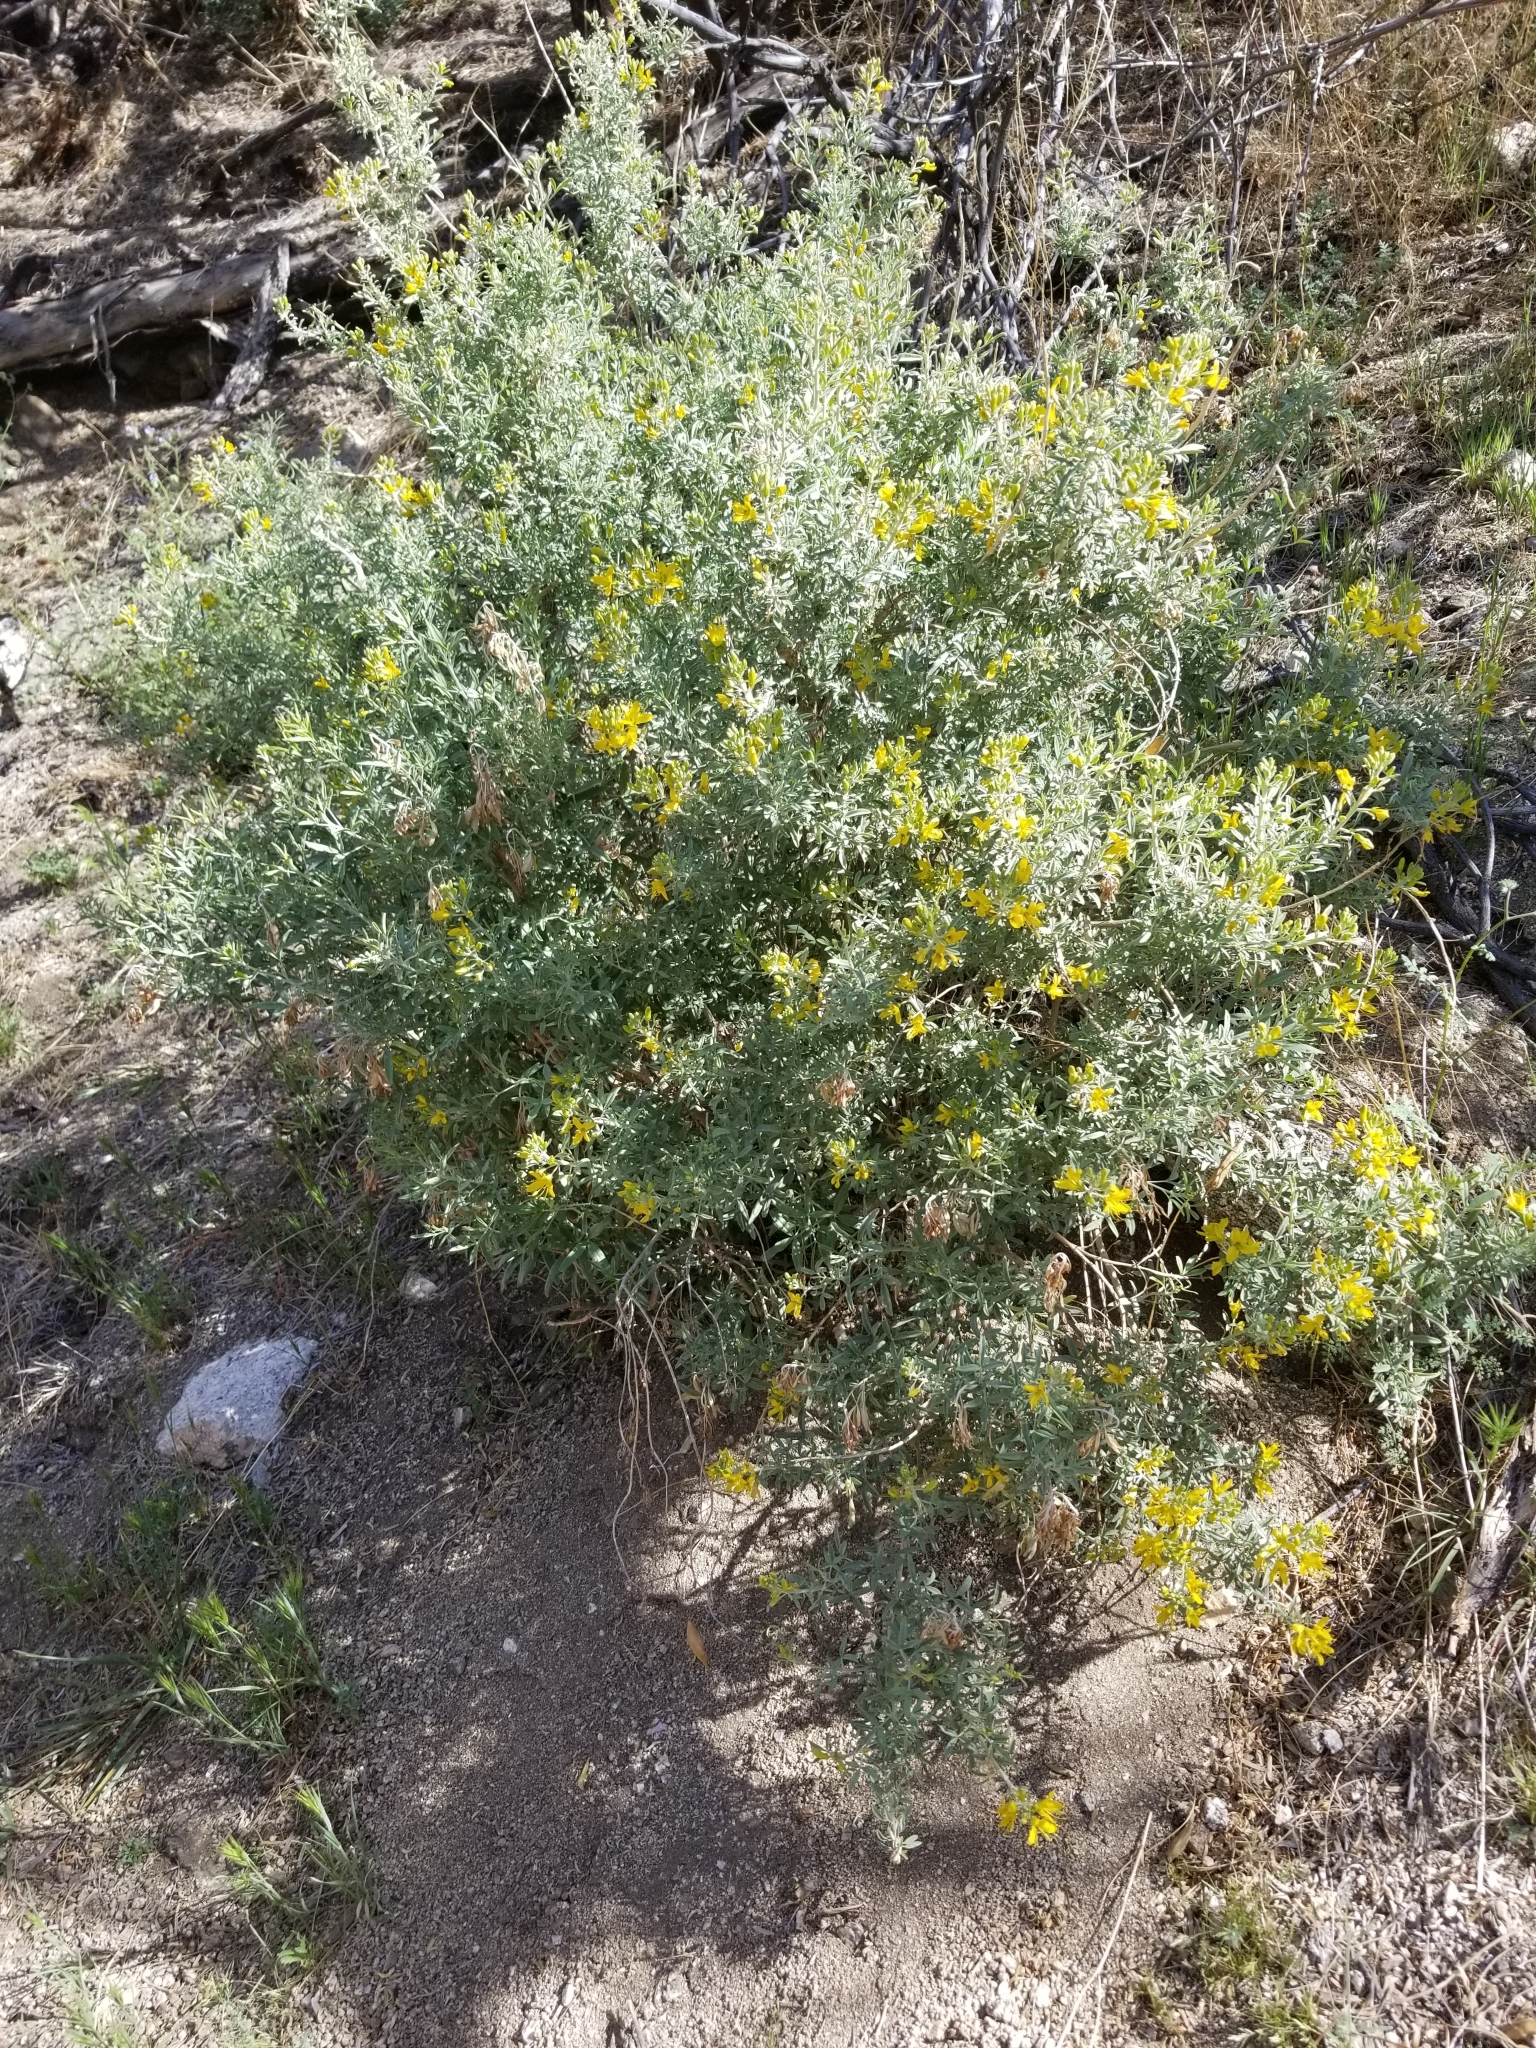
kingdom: Plantae
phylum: Tracheophyta
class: Magnoliopsida
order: Brassicales
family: Cleomaceae
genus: Cleomella
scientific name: Cleomella arborea
